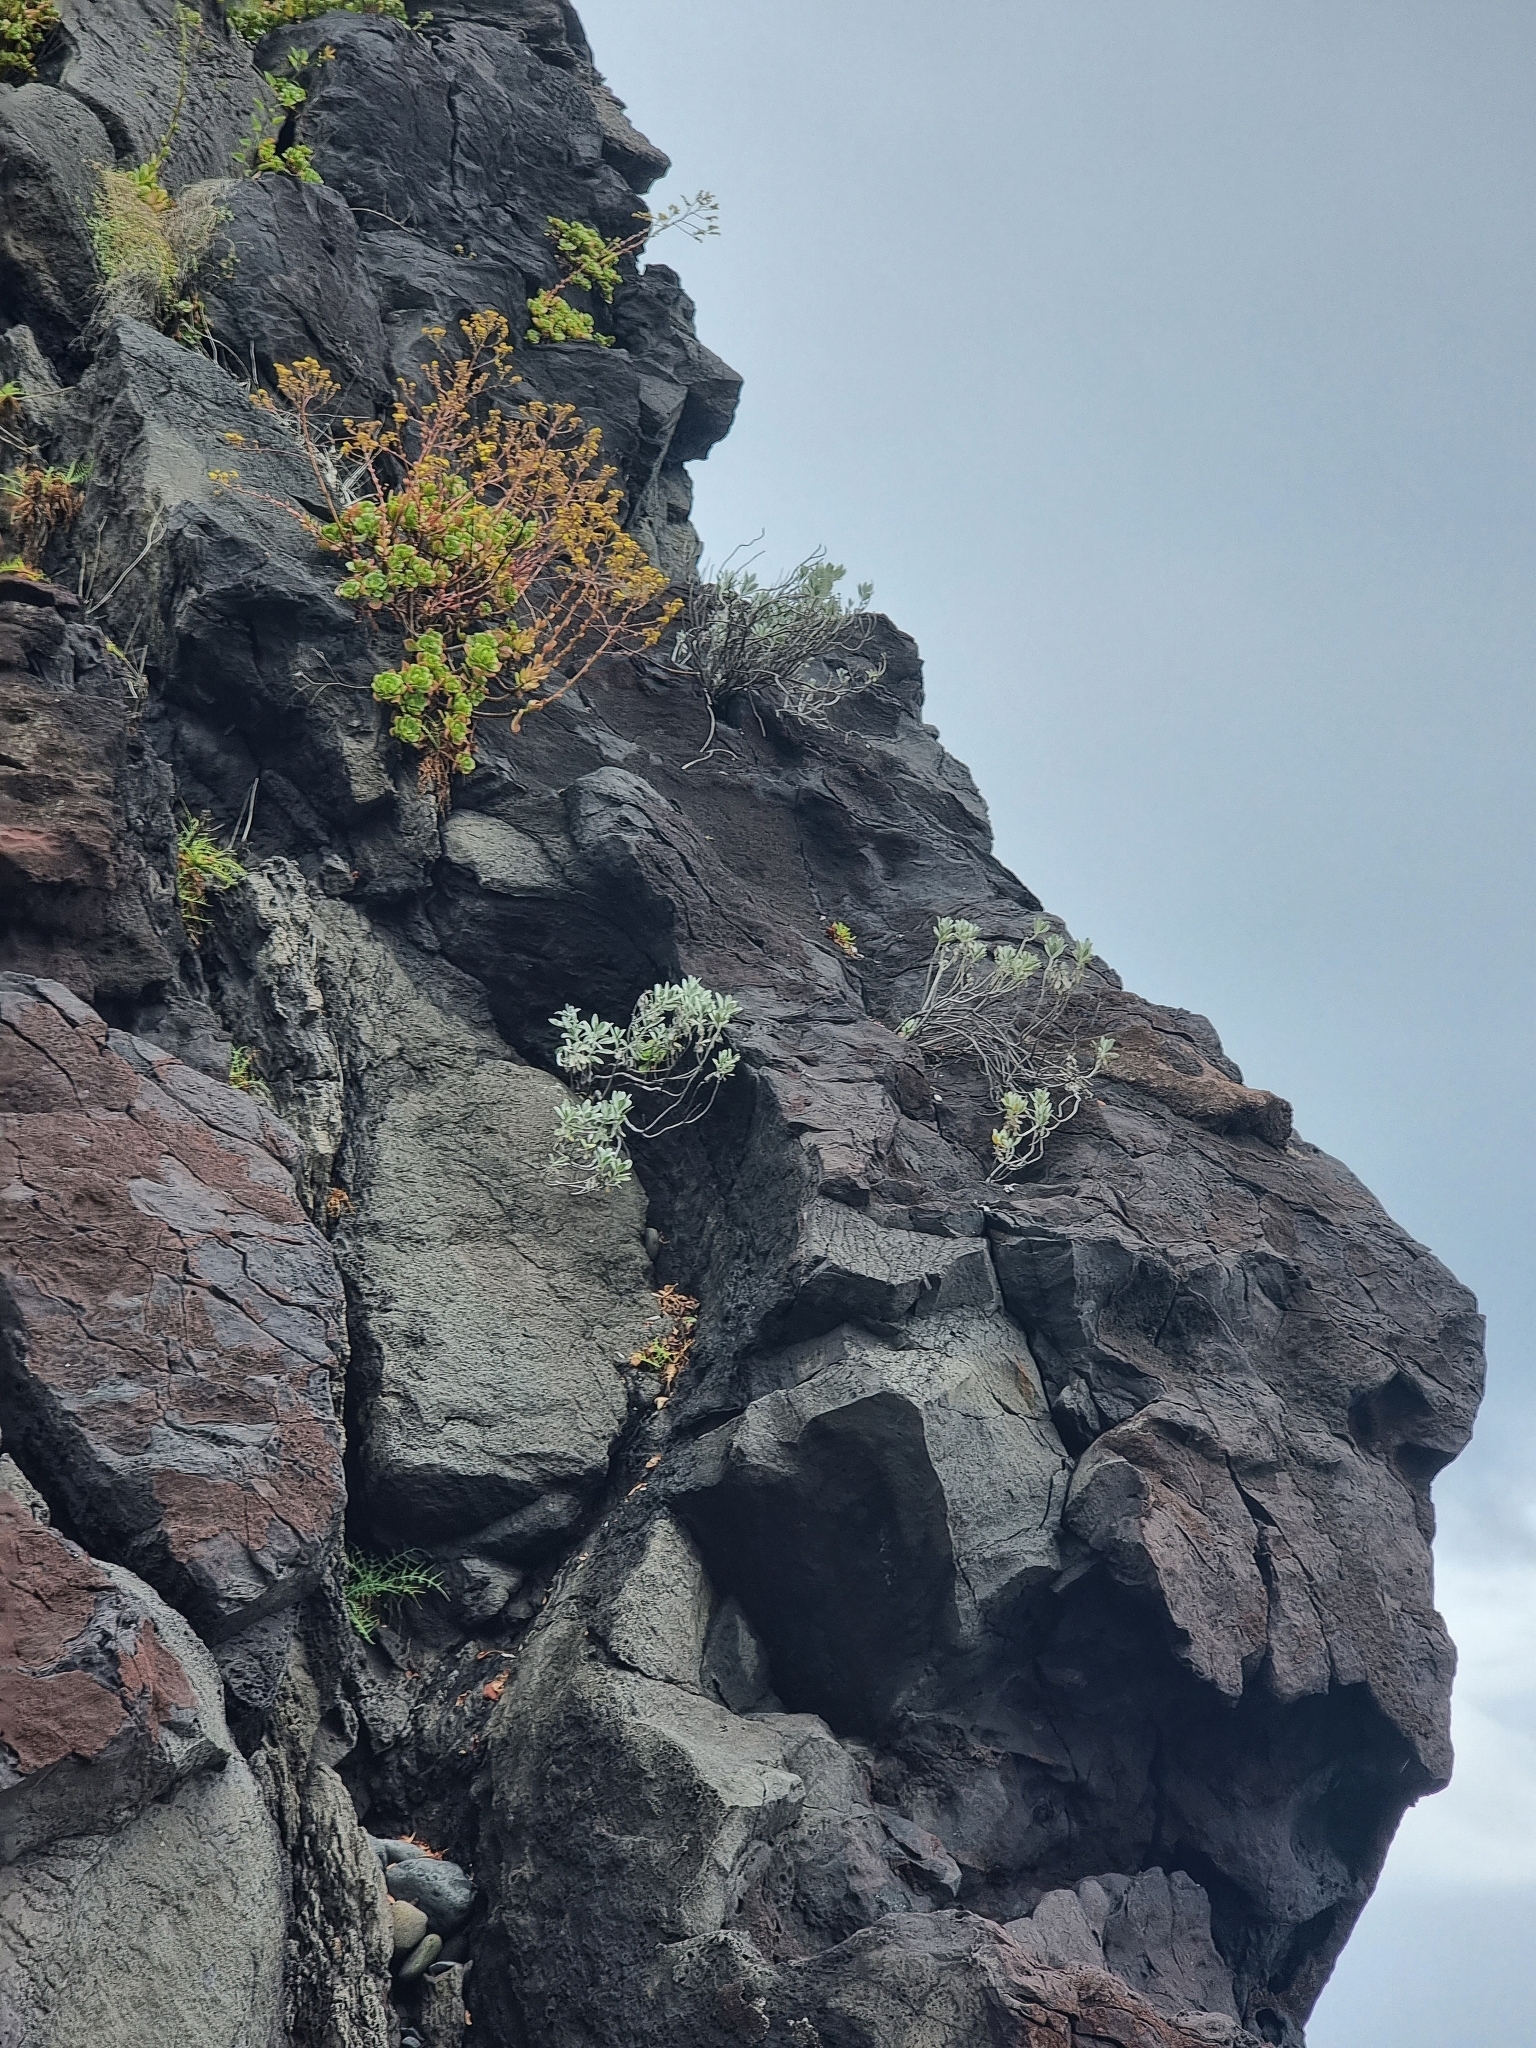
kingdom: Plantae
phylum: Tracheophyta
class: Magnoliopsida
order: Asterales
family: Asteraceae
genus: Helichrysum
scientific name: Helichrysum obconicum
